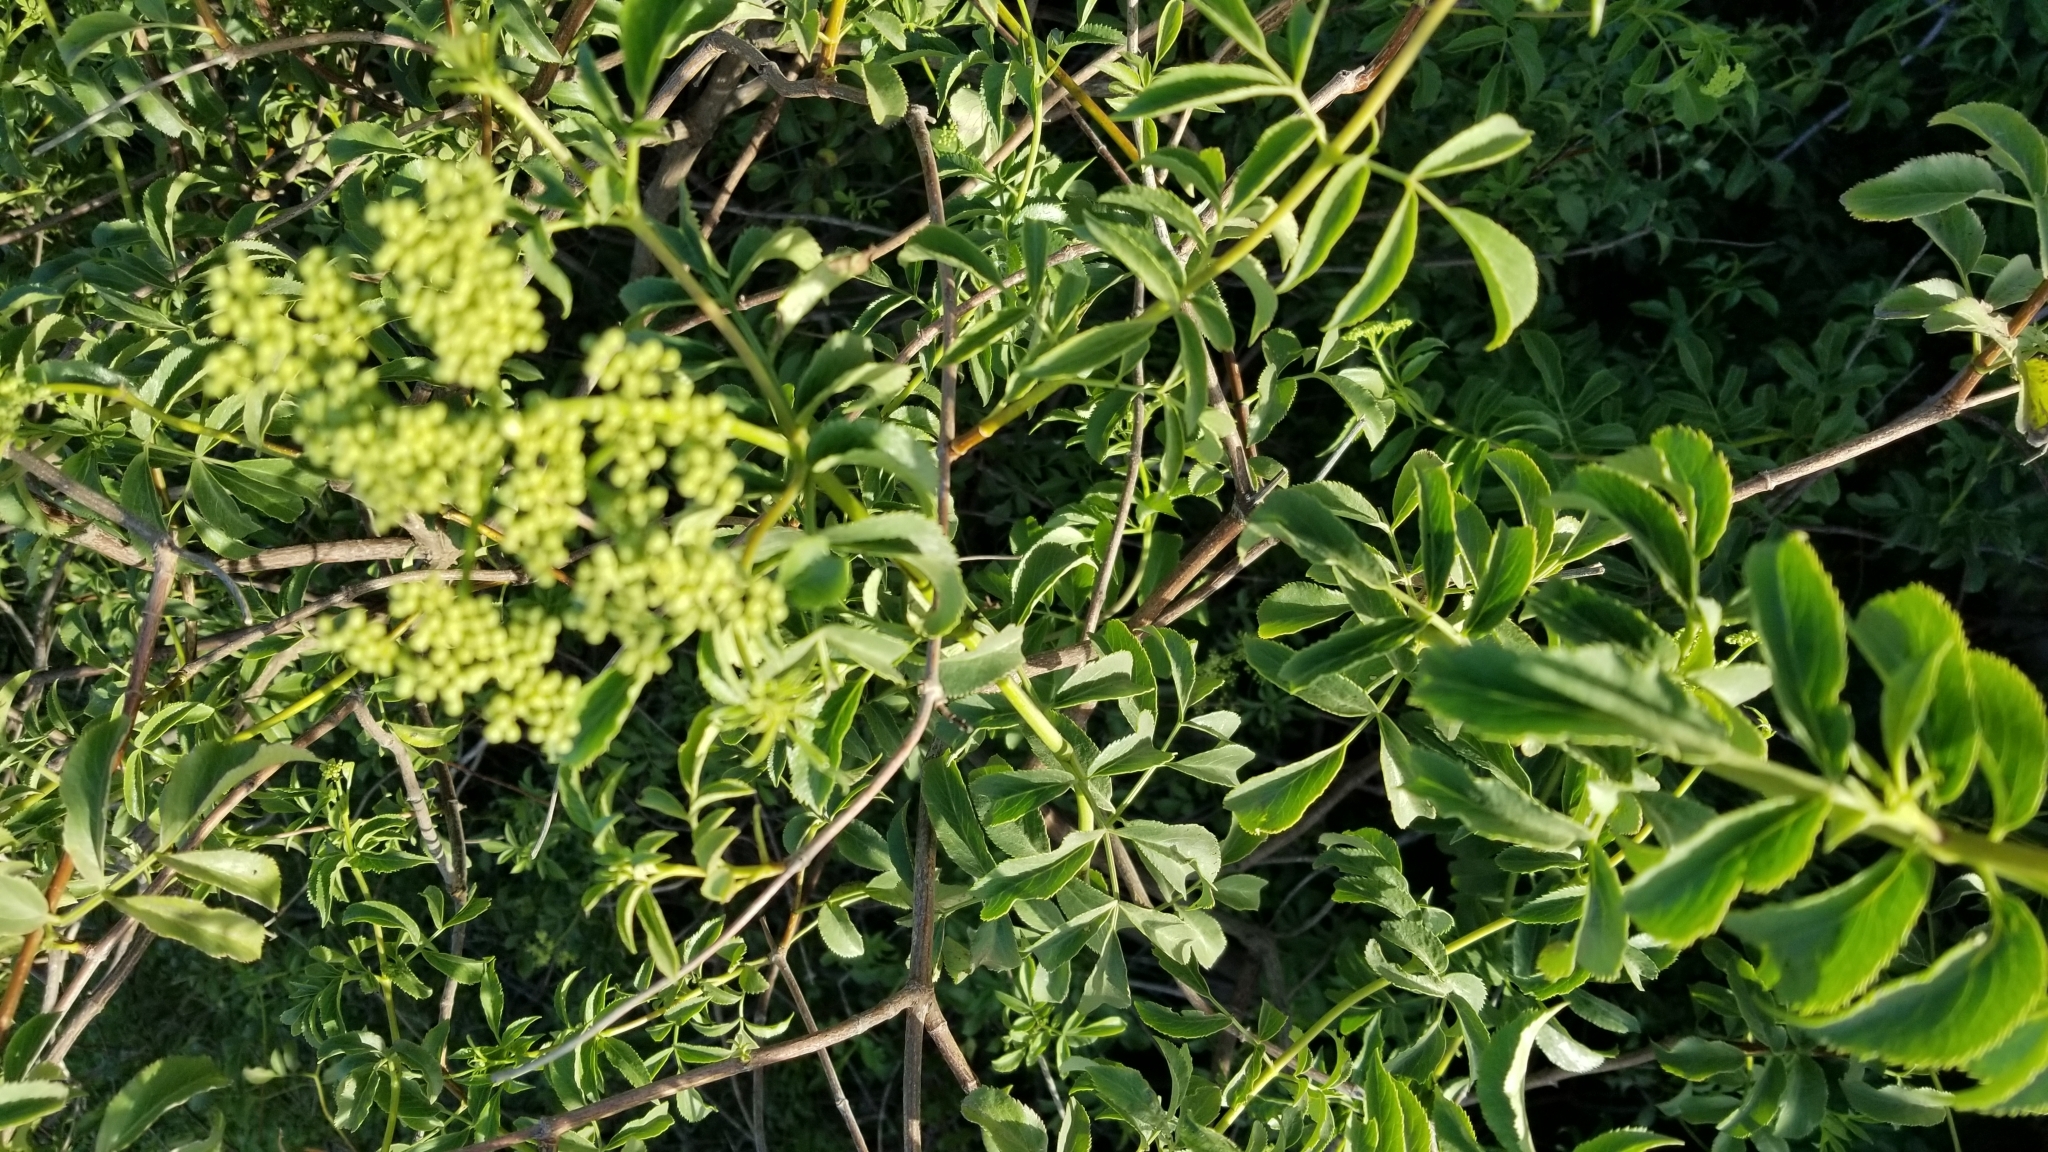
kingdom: Plantae
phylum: Tracheophyta
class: Magnoliopsida
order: Dipsacales
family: Viburnaceae
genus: Sambucus
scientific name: Sambucus cerulea
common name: Blue elder
